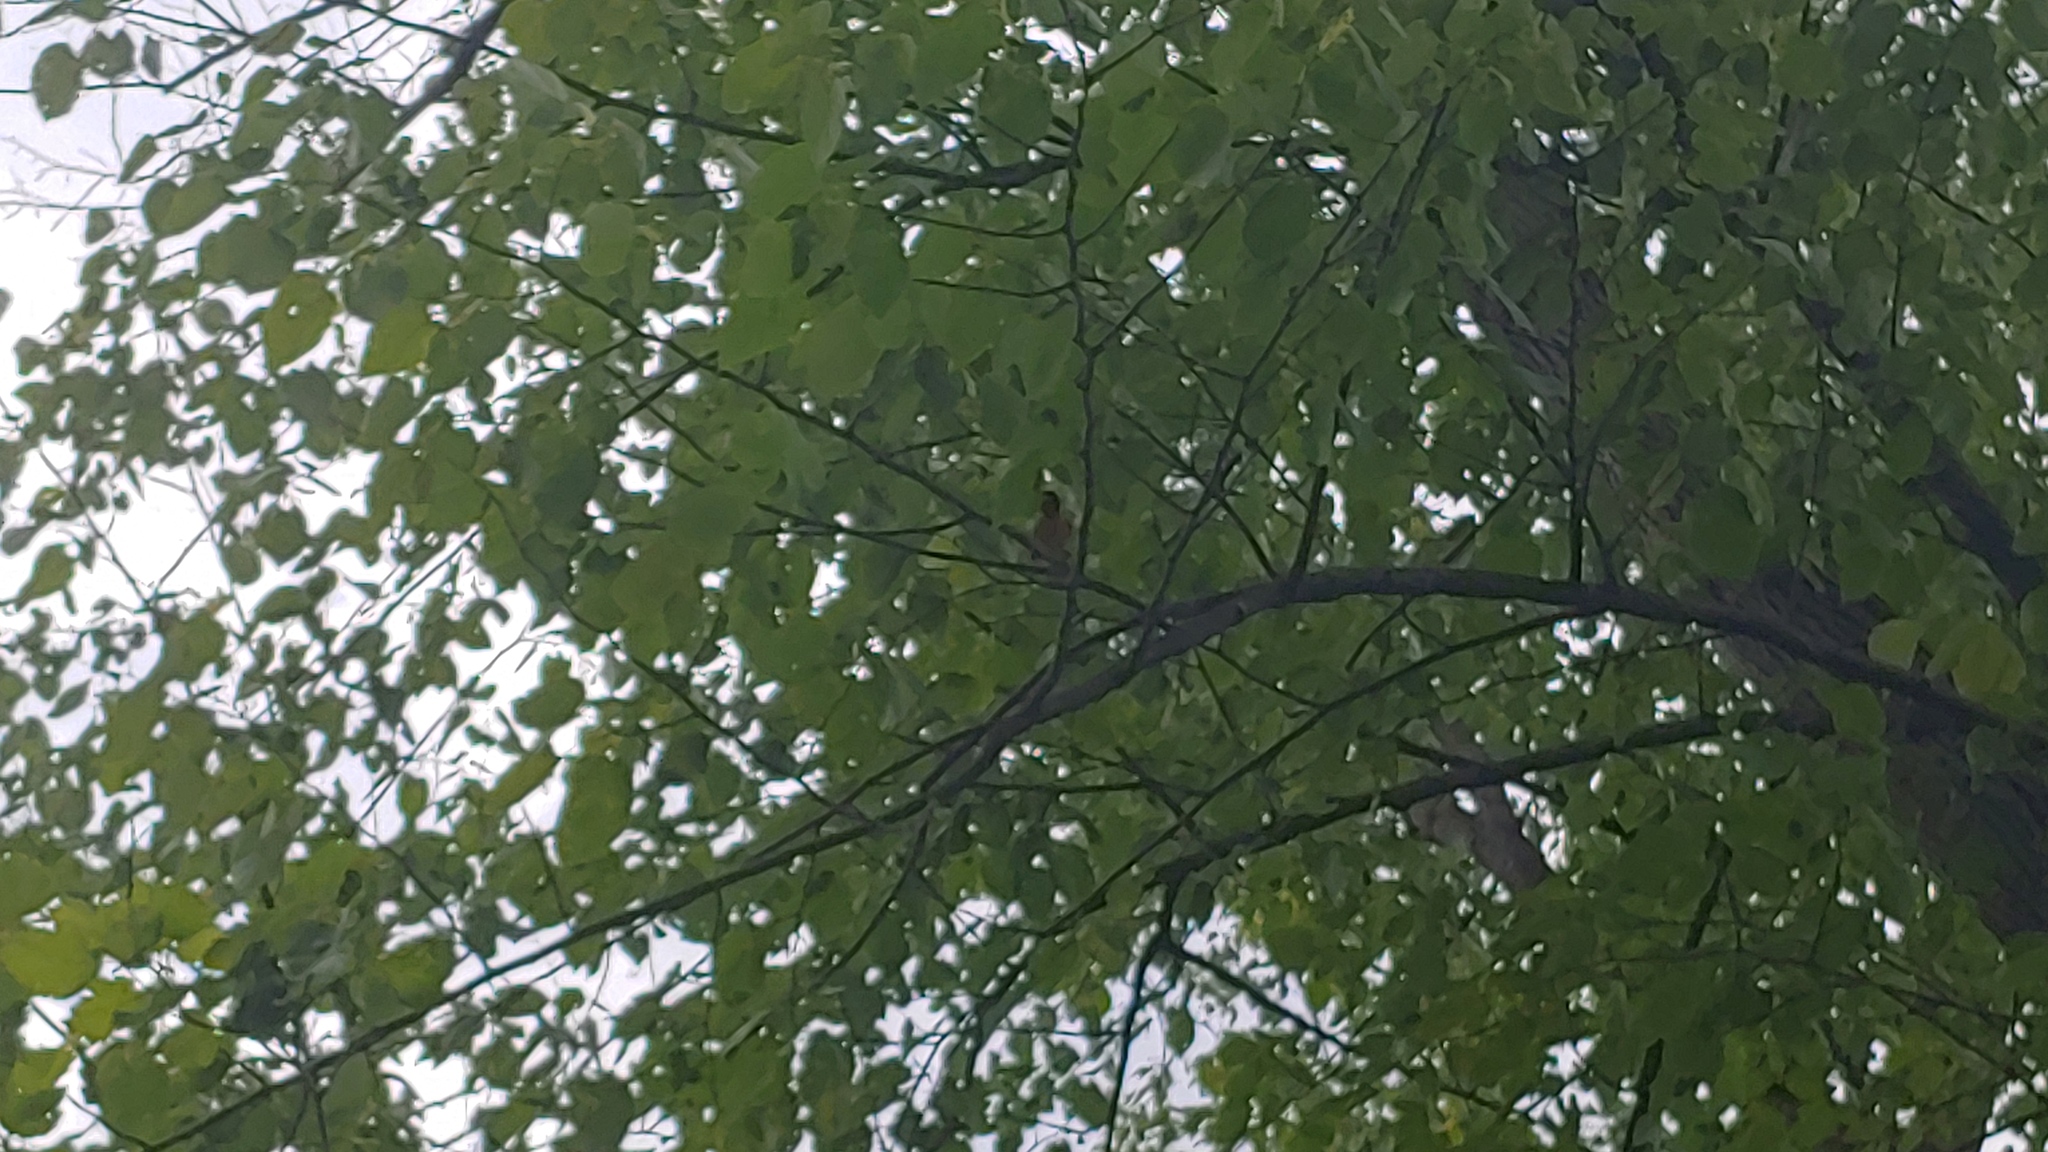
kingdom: Animalia
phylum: Chordata
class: Aves
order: Passeriformes
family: Icteridae
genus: Icterus
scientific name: Icterus galbula
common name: Baltimore oriole
